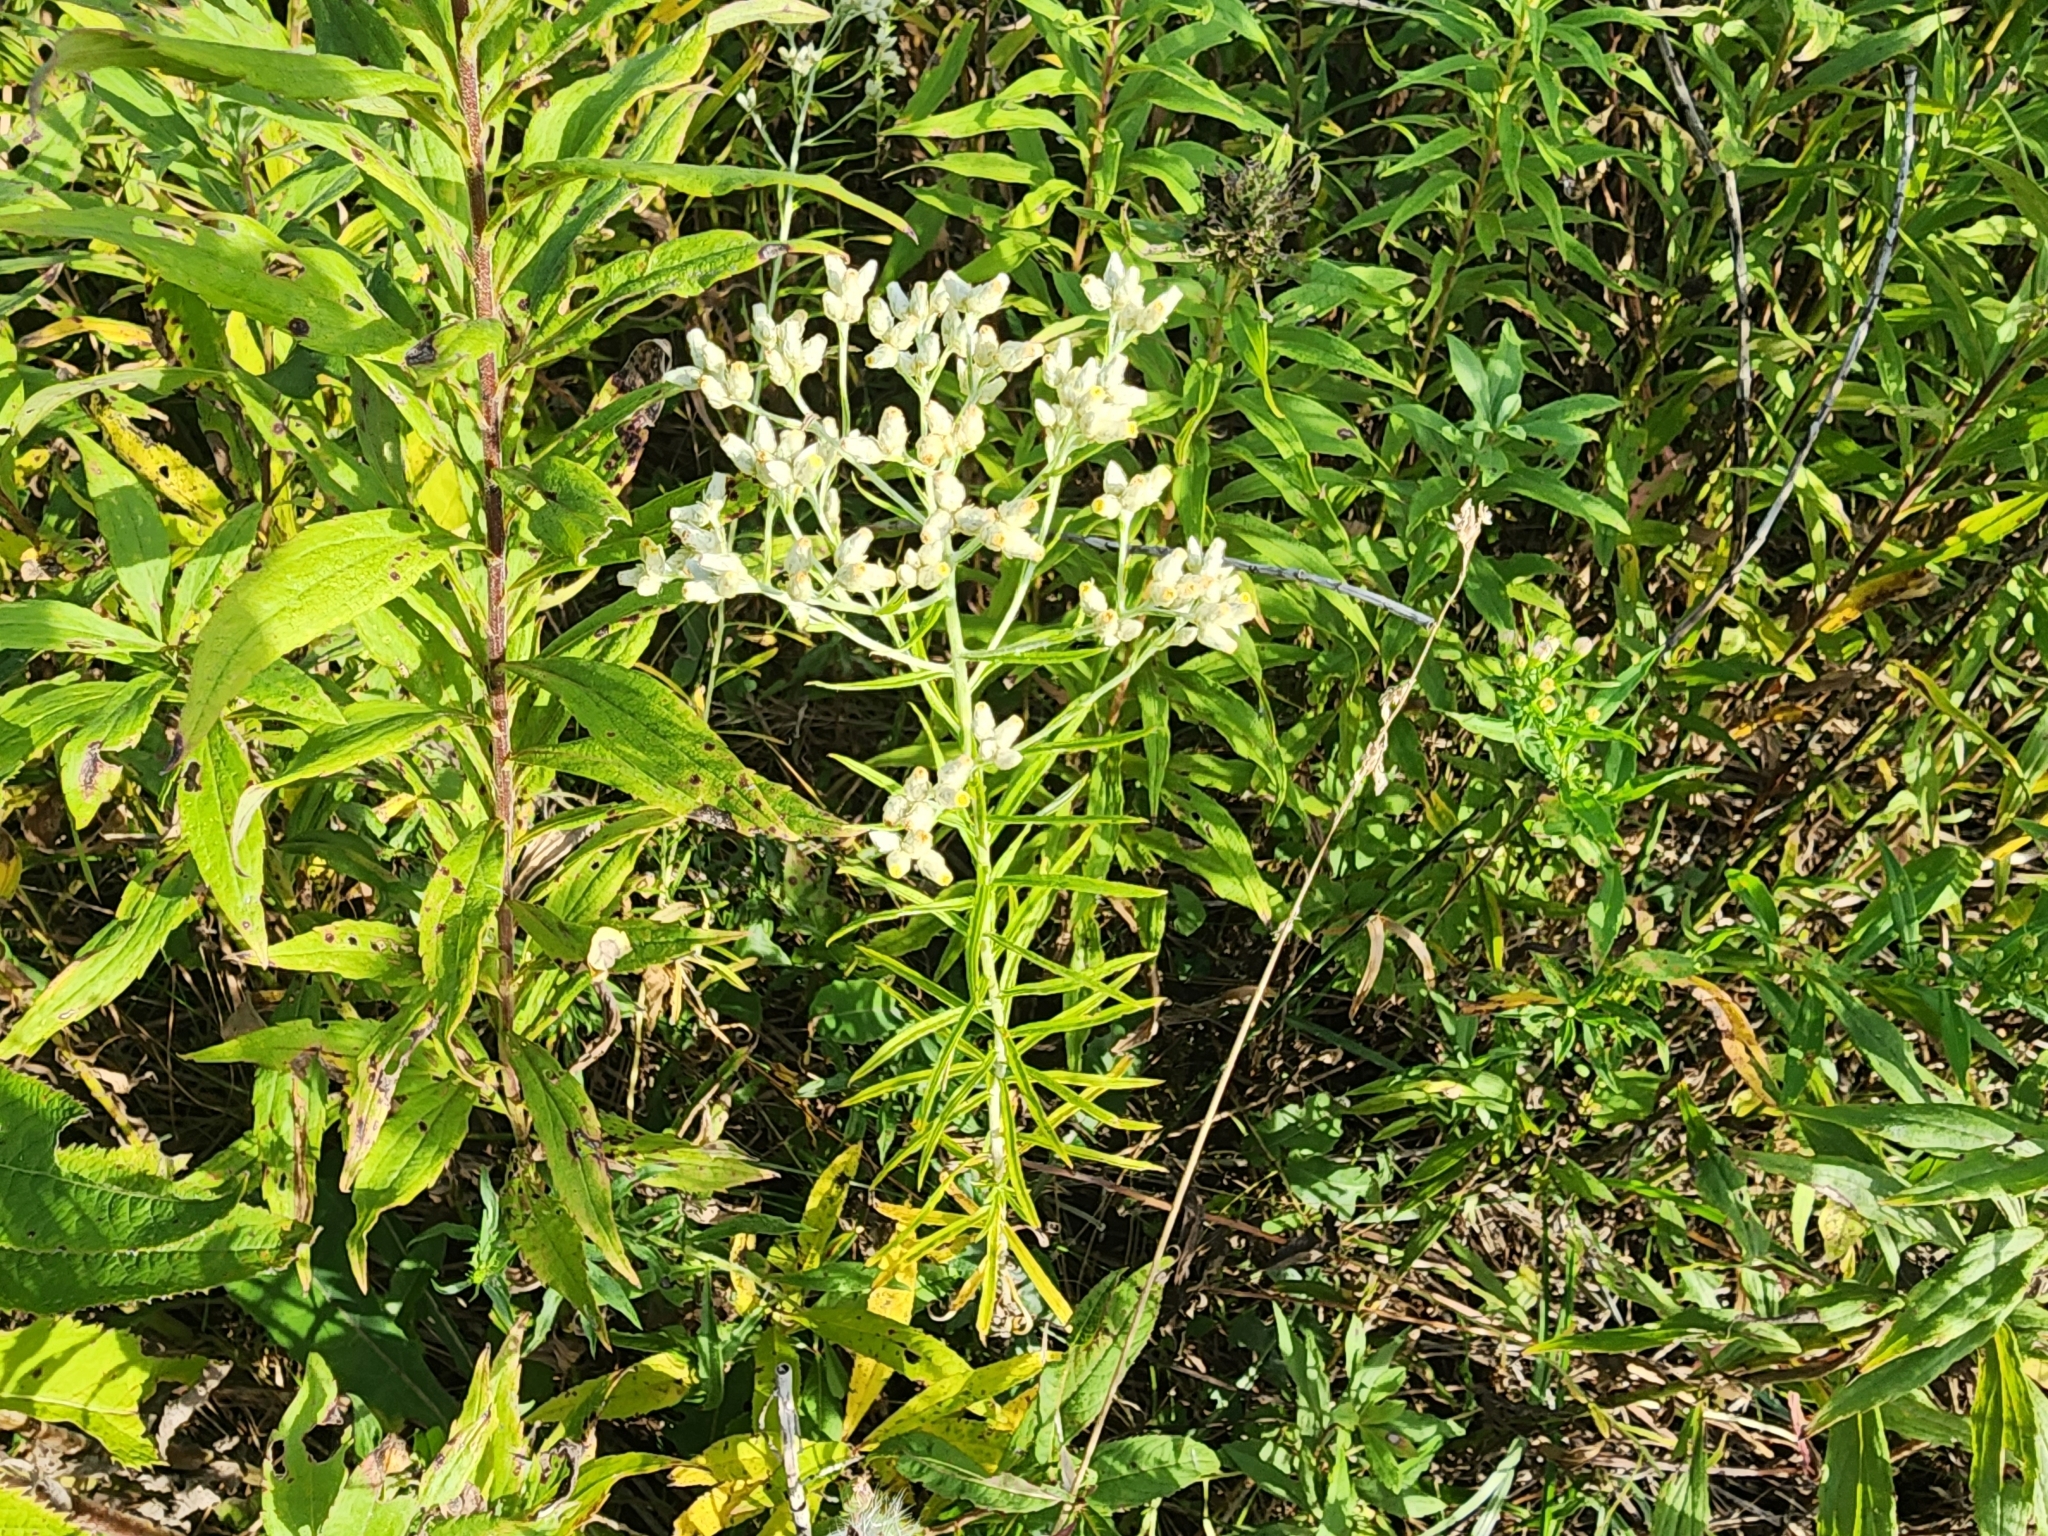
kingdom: Plantae
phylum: Tracheophyta
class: Magnoliopsida
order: Asterales
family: Asteraceae
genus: Pseudognaphalium
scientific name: Pseudognaphalium obtusifolium
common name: Eastern rabbit-tobacco
